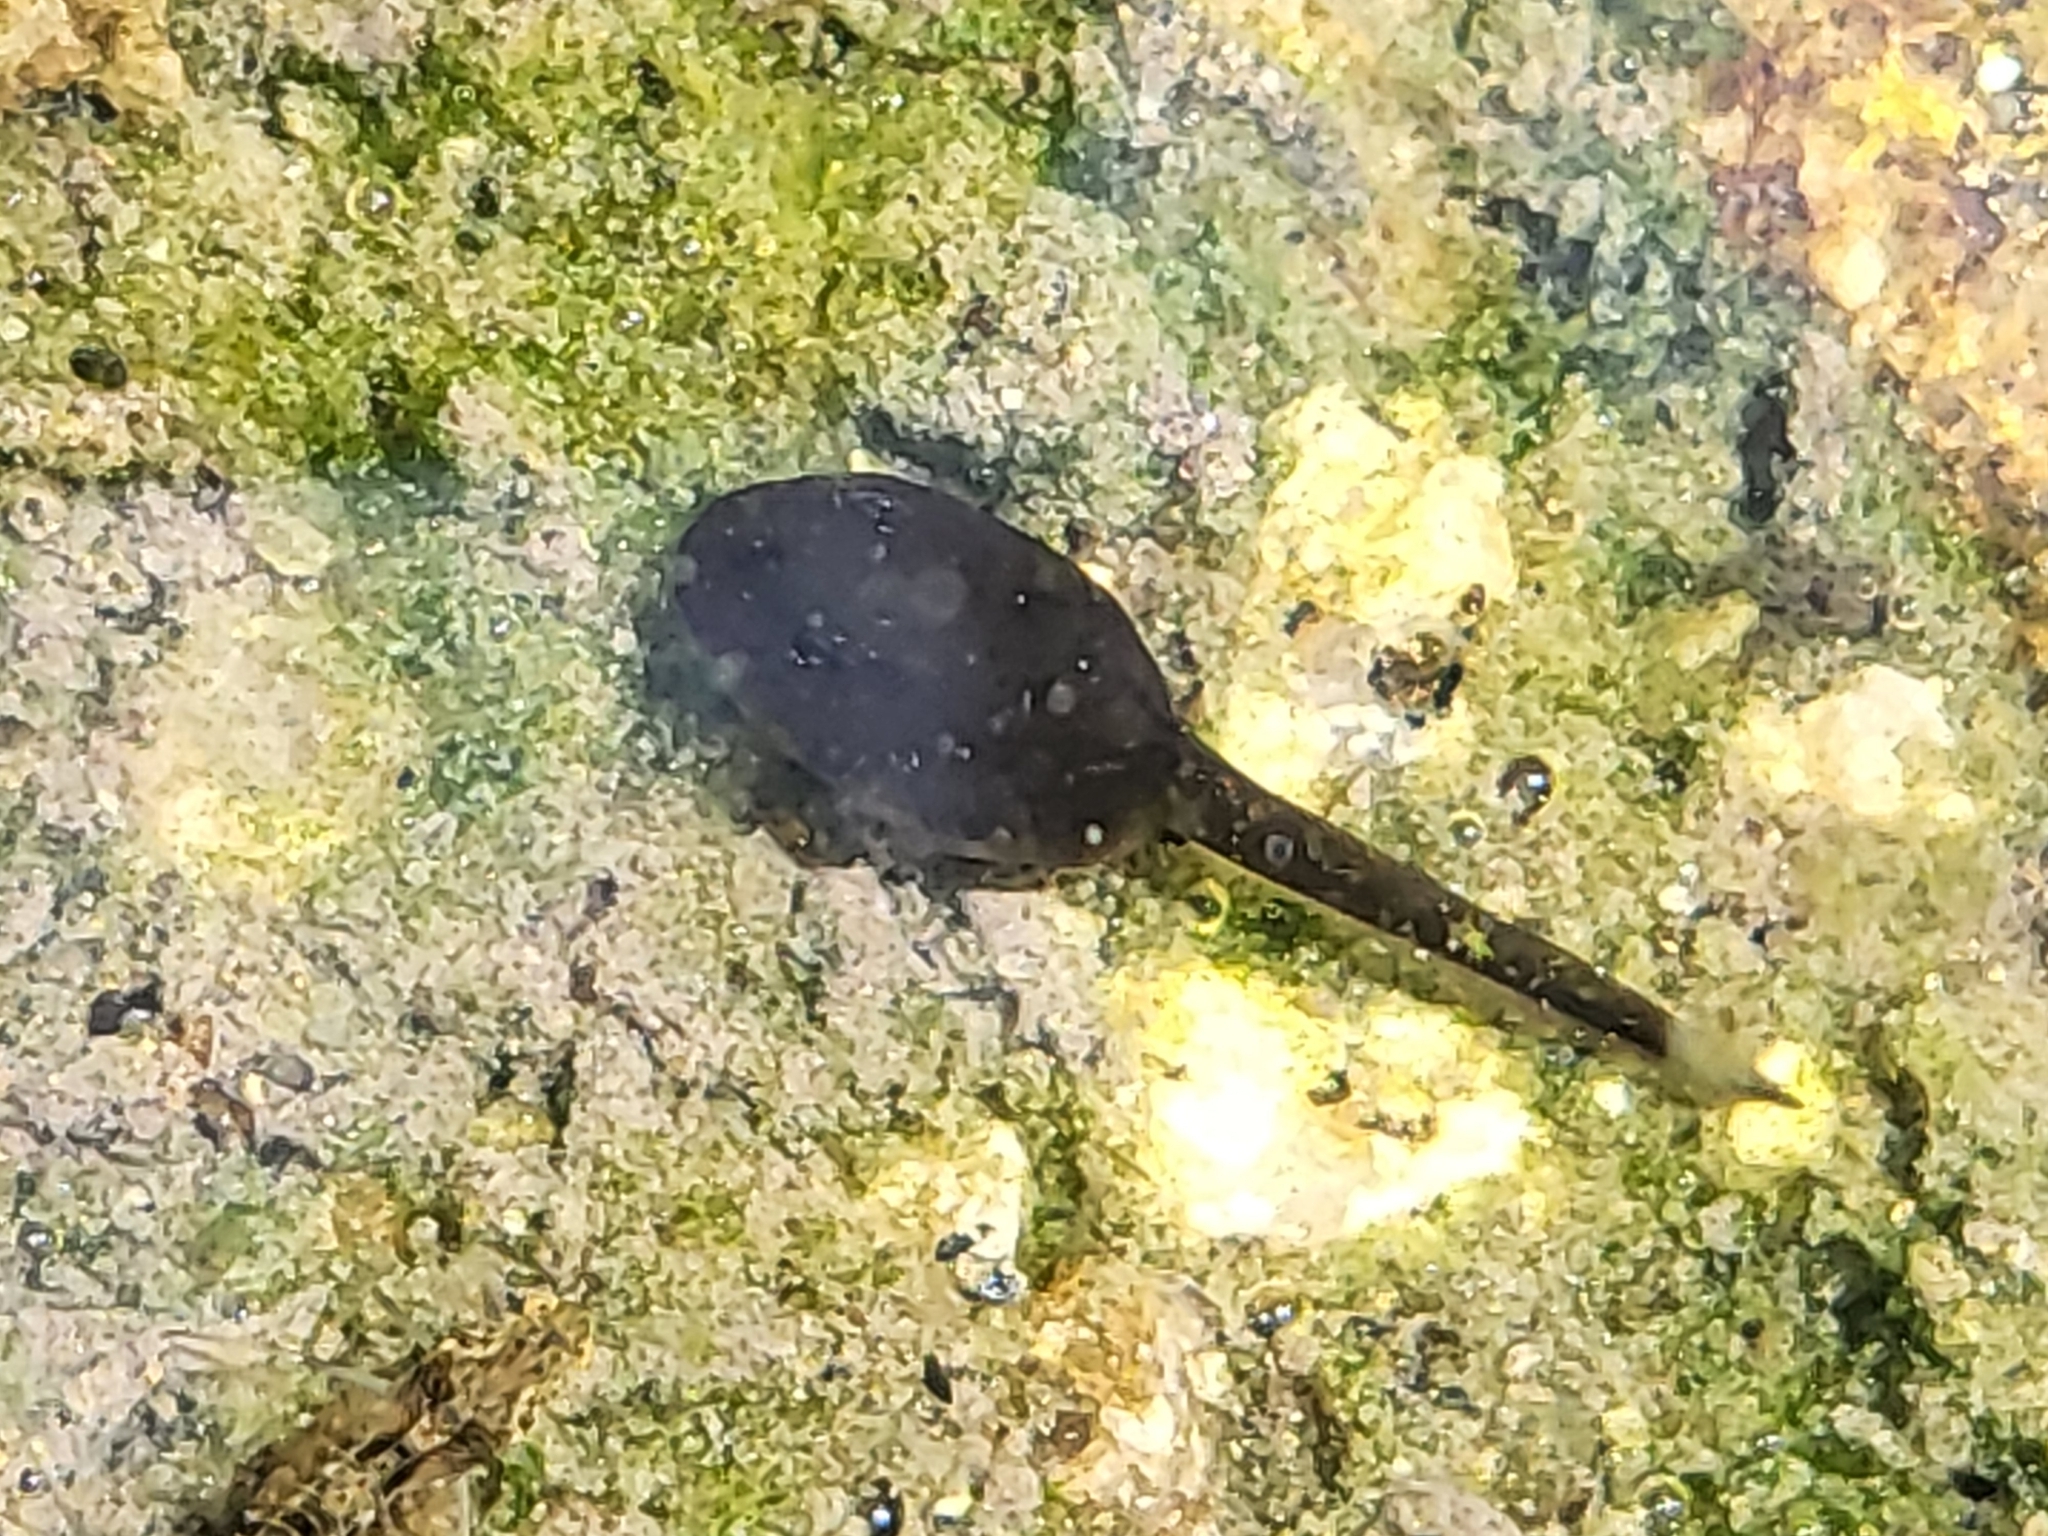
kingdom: Animalia
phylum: Chordata
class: Amphibia
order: Anura
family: Bufonidae
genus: Anaxyrus
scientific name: Anaxyrus boreas
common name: Western toad
